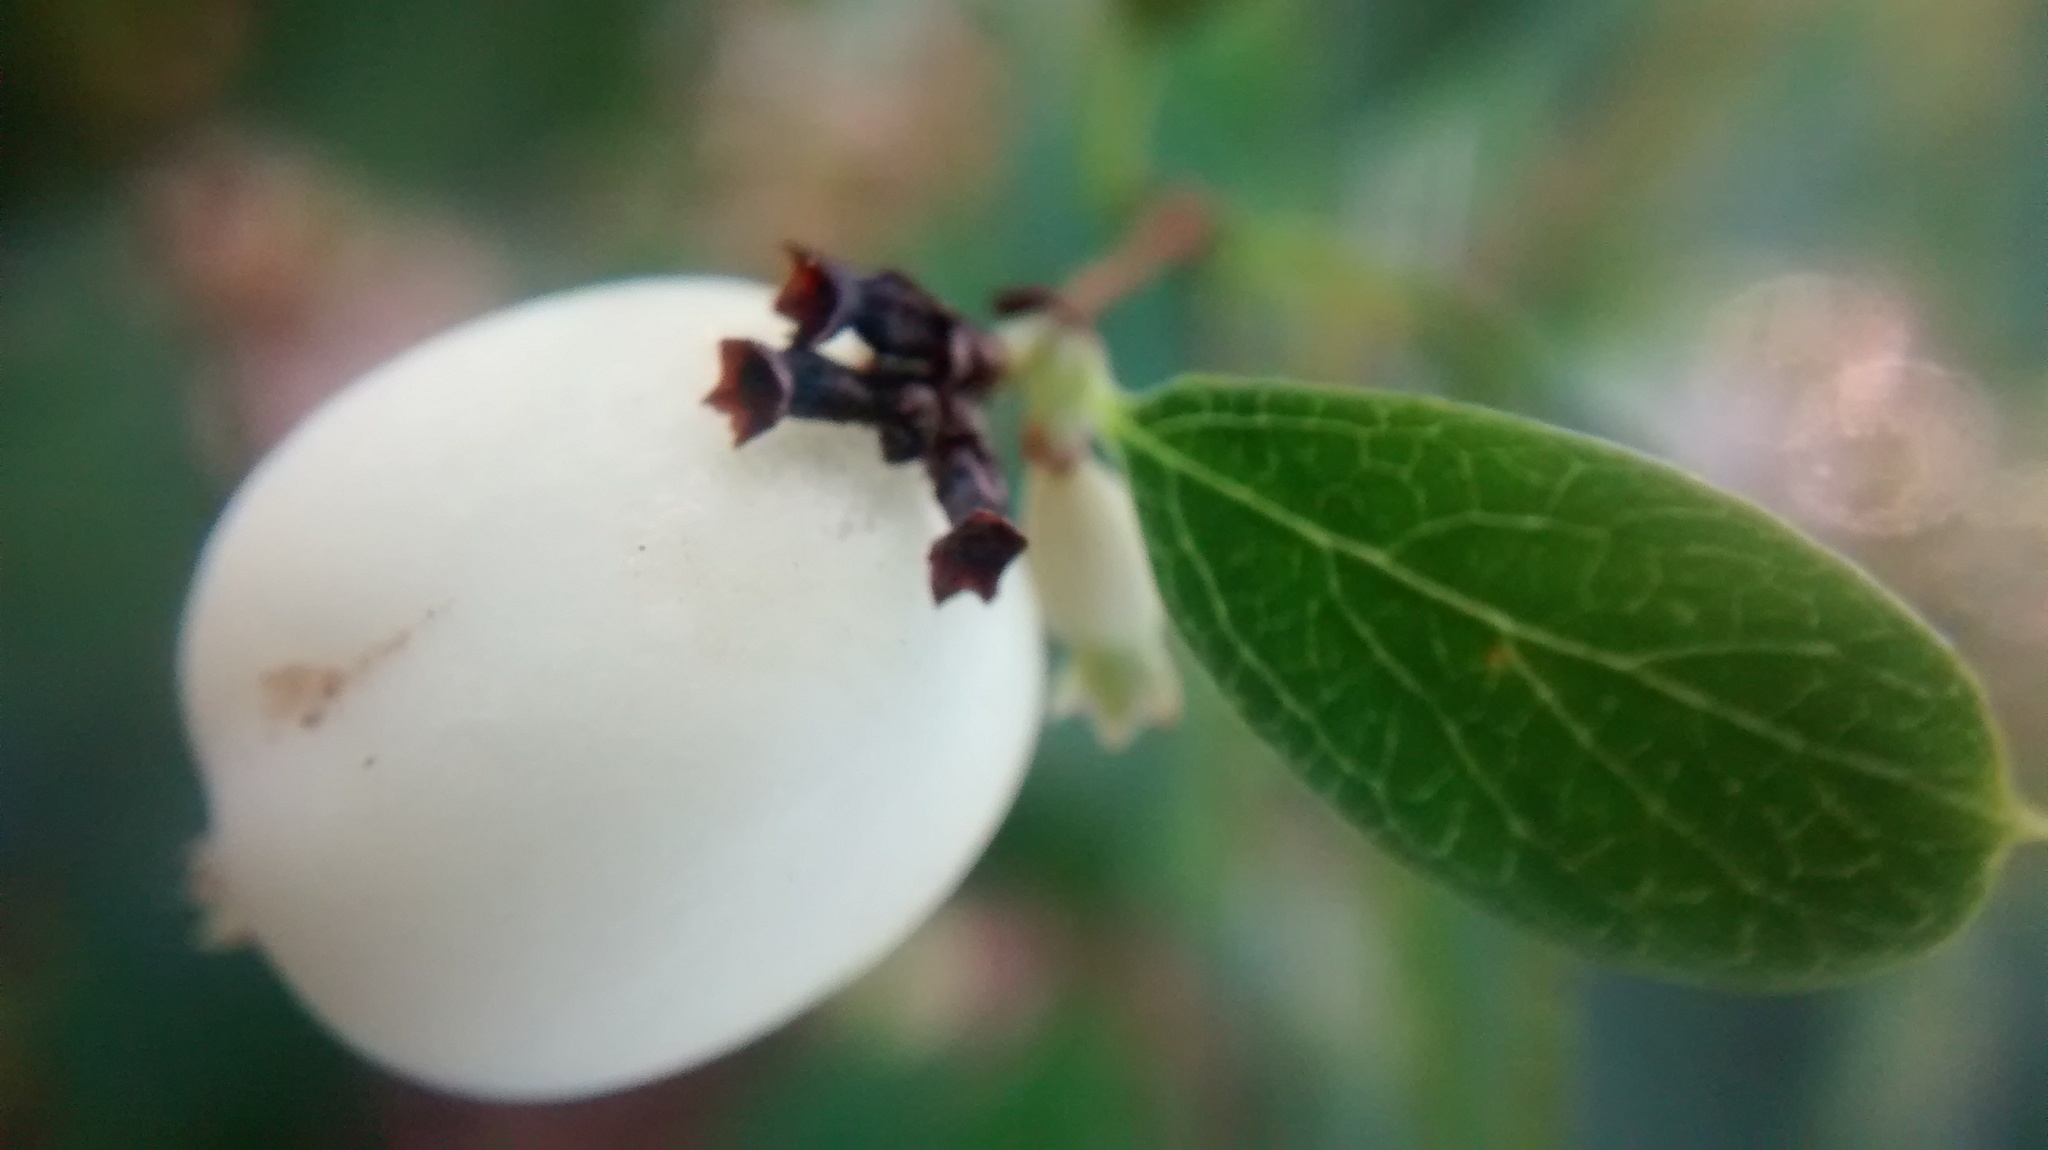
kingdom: Plantae
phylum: Tracheophyta
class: Magnoliopsida
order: Dipsacales
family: Caprifoliaceae
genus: Symphoricarpos
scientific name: Symphoricarpos albus
